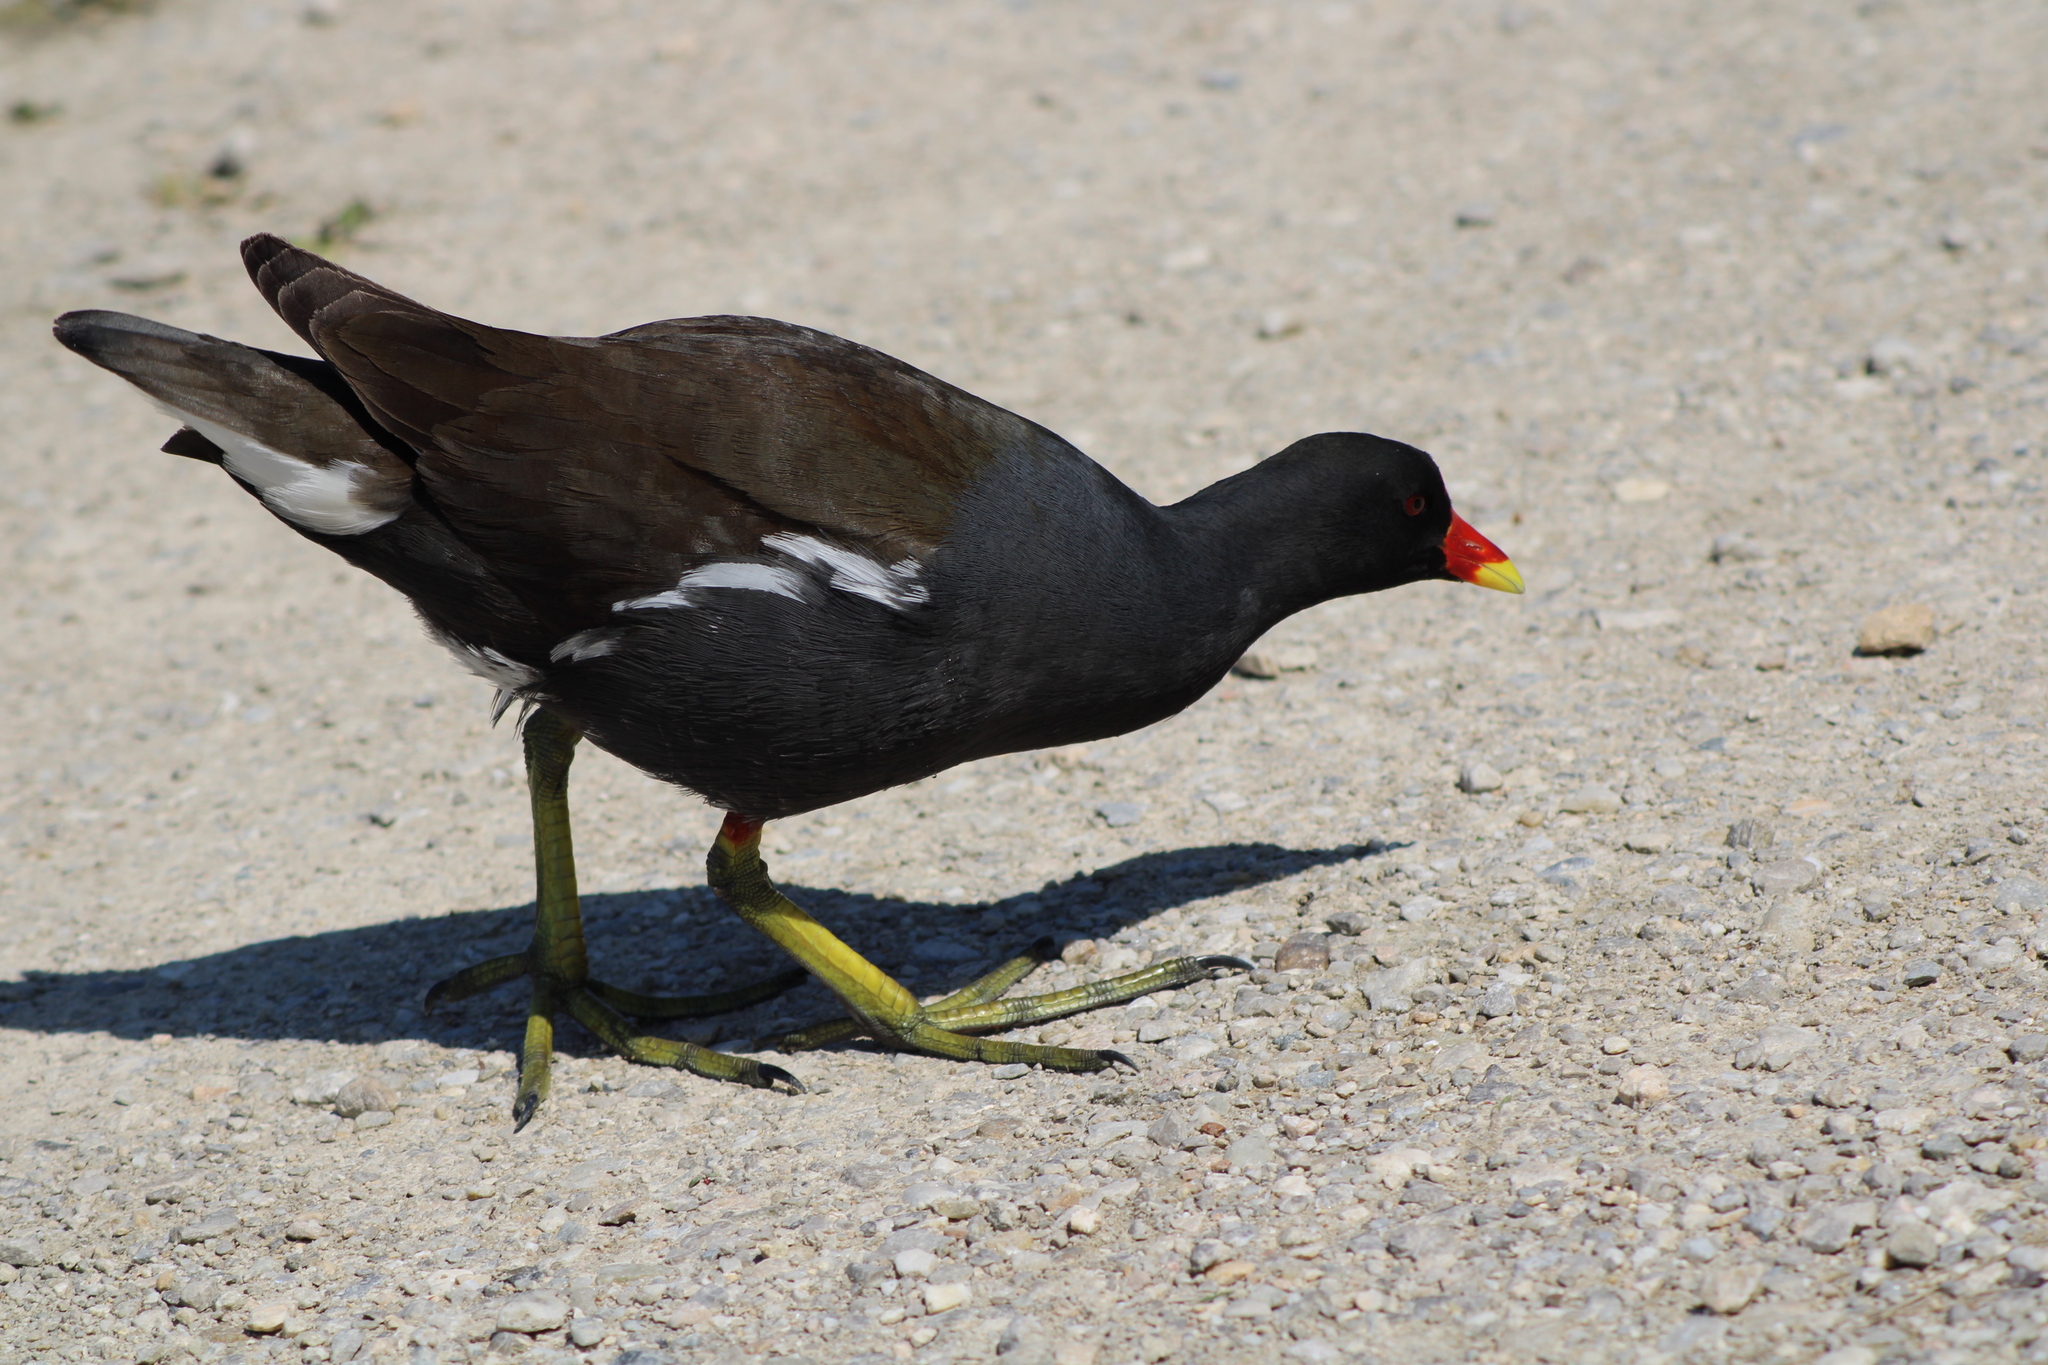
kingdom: Animalia
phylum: Chordata
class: Aves
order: Gruiformes
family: Rallidae
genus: Gallinula
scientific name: Gallinula chloropus
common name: Common moorhen
